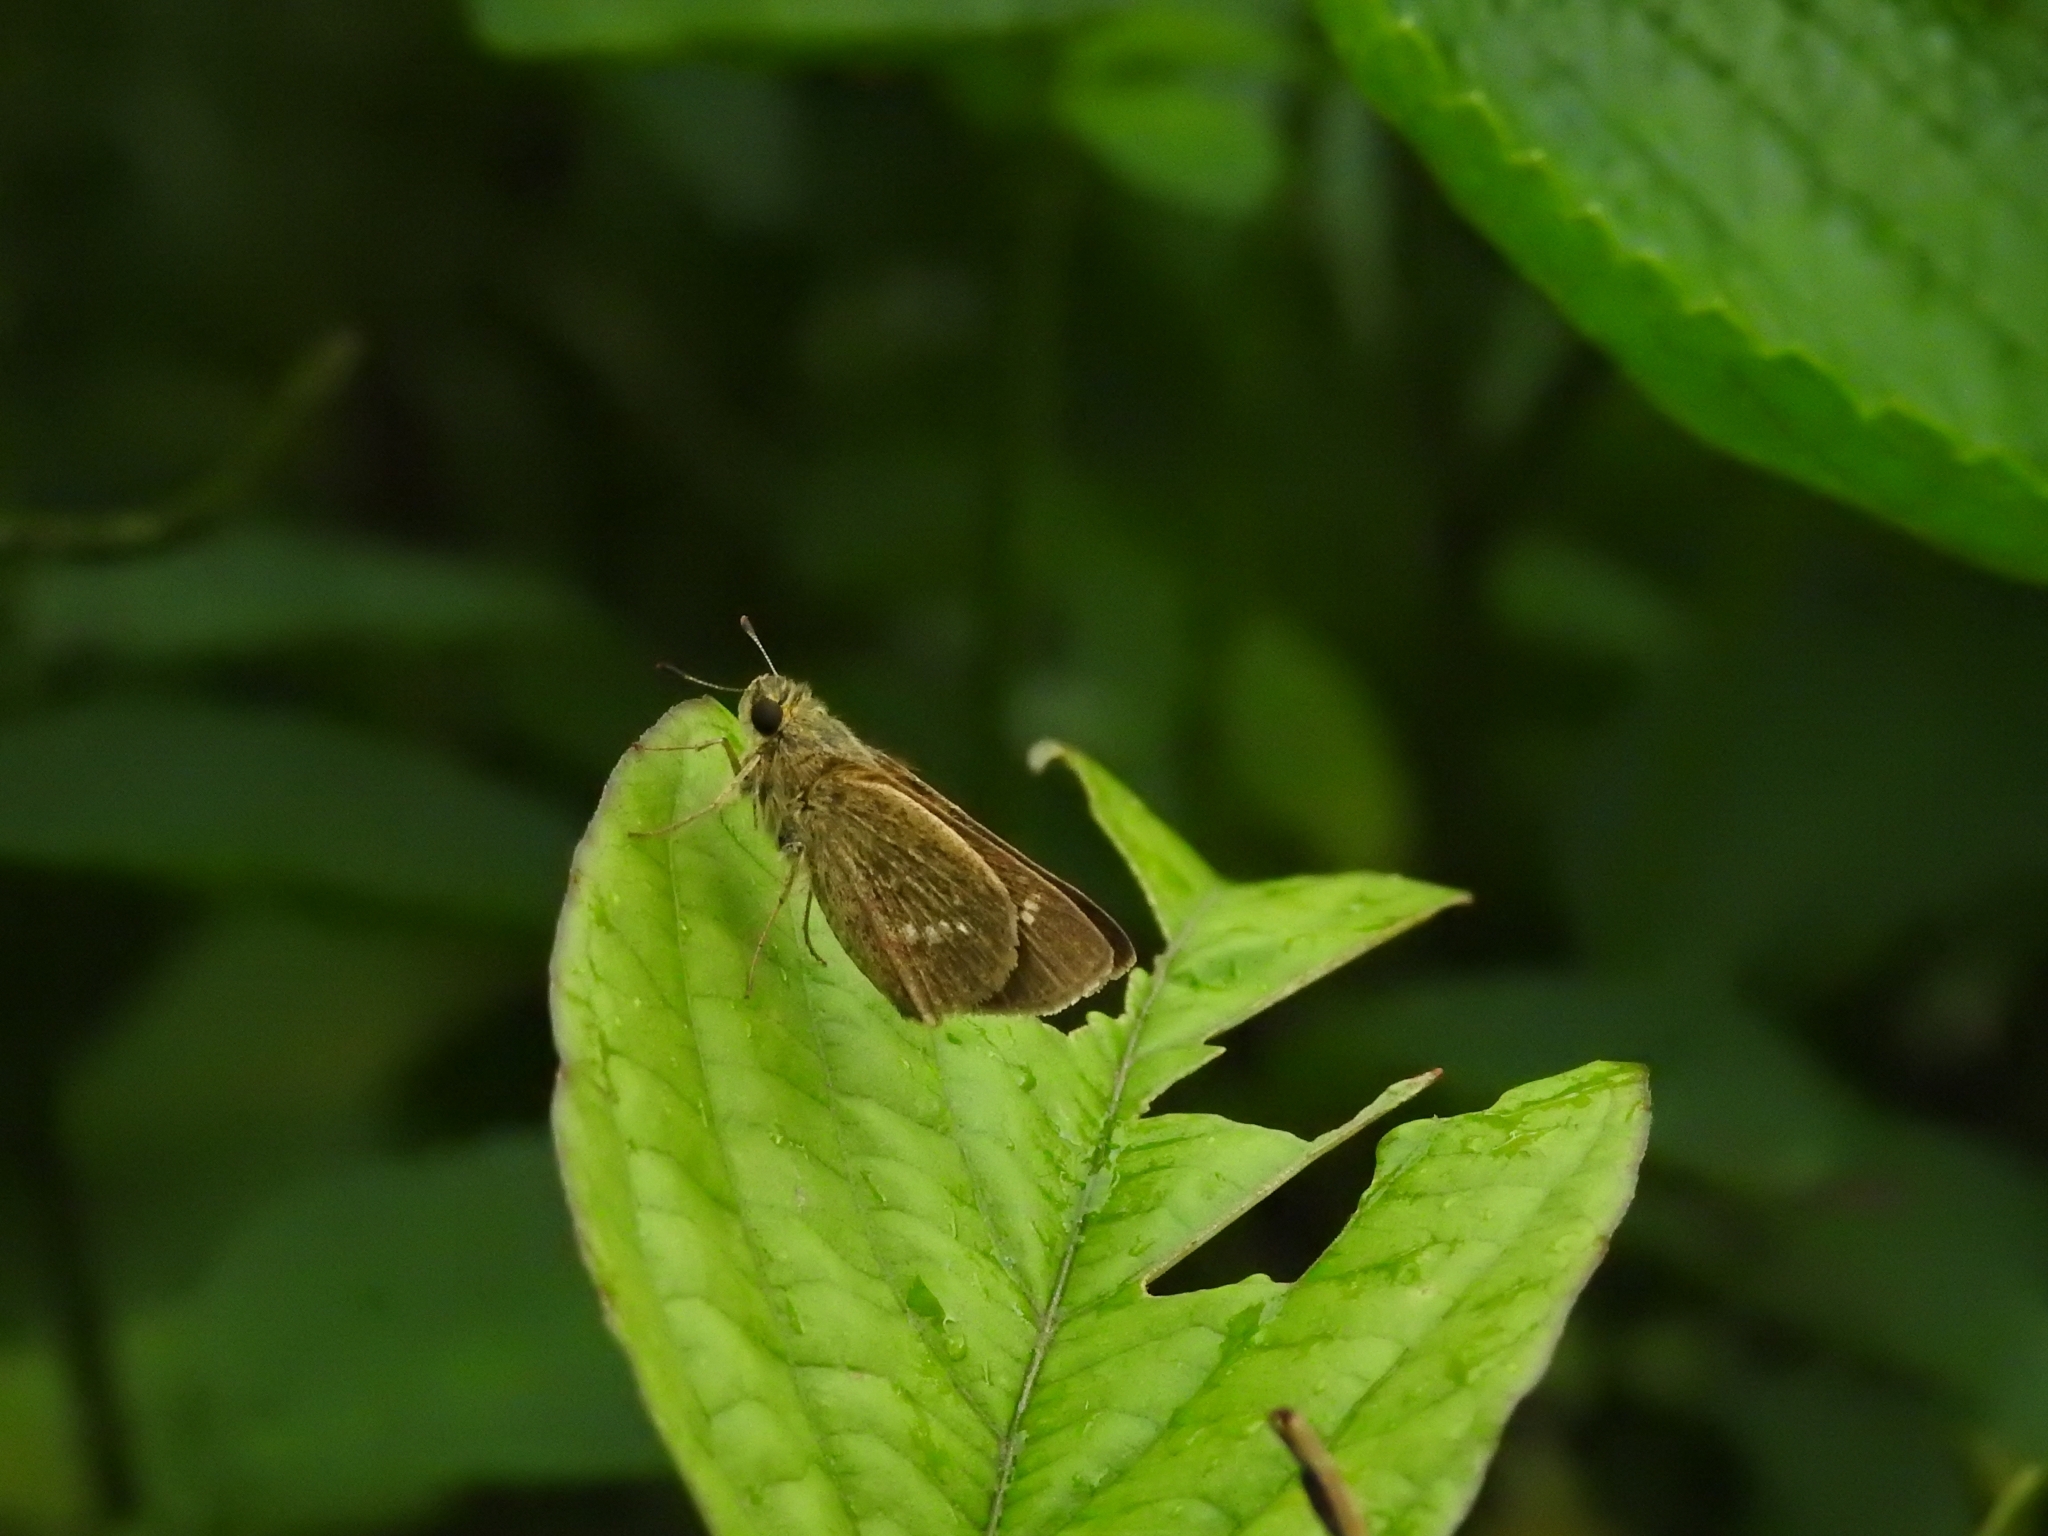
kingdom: Animalia
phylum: Arthropoda
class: Insecta
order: Lepidoptera
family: Hesperiidae
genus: Parnara
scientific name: Parnara naso
